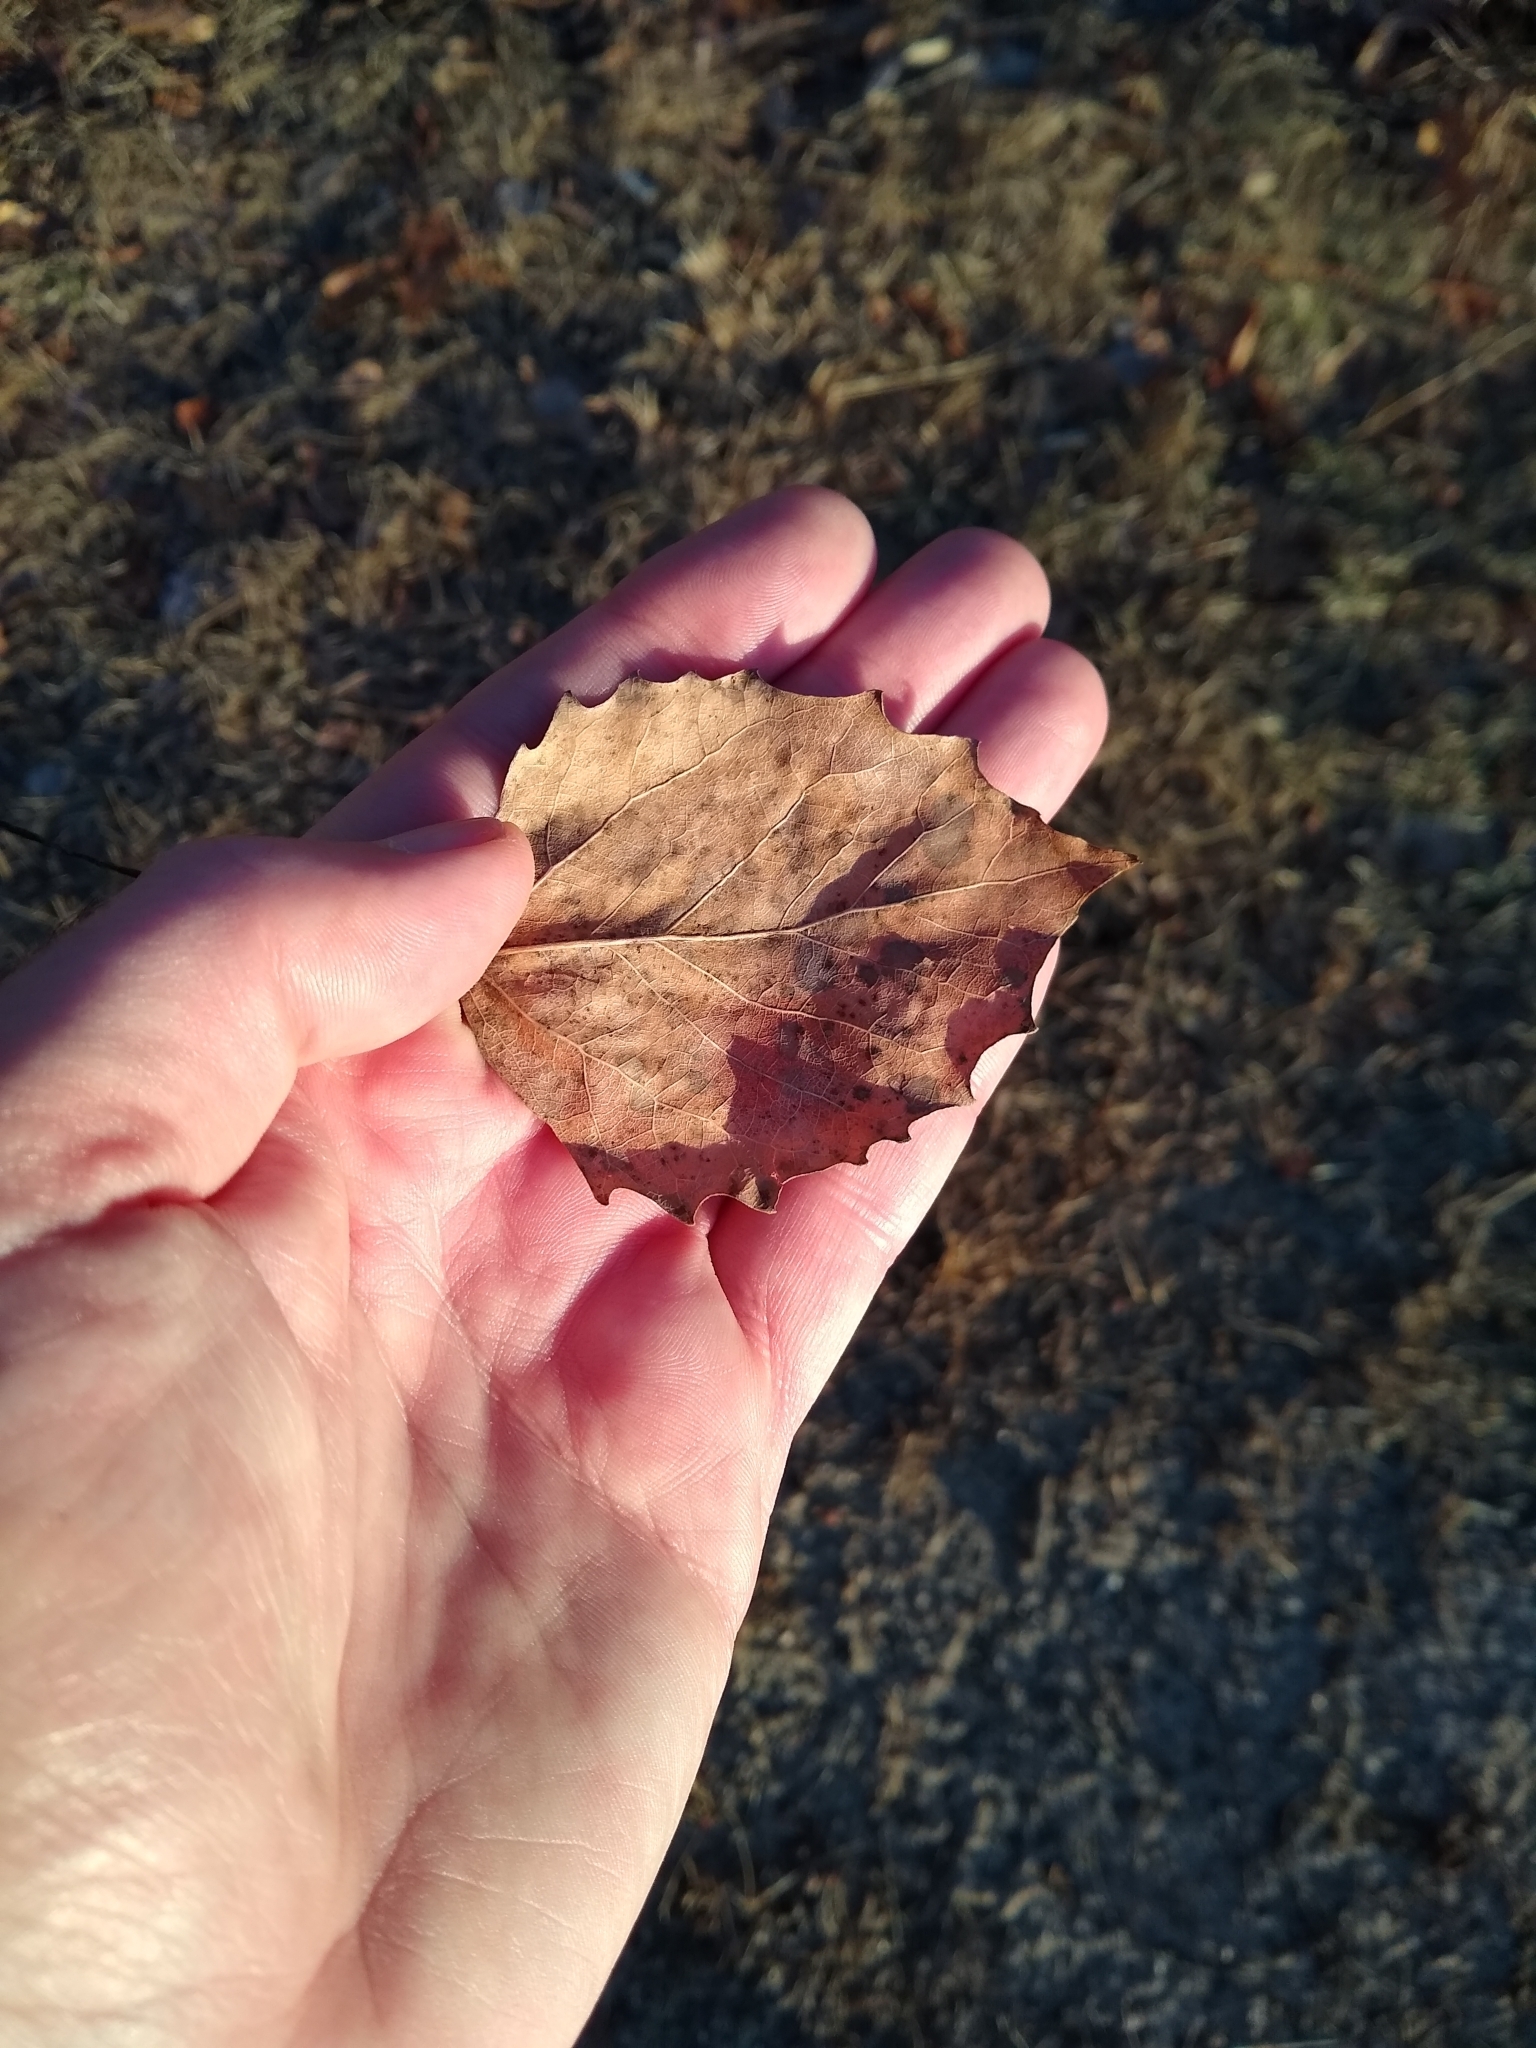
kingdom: Plantae
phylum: Tracheophyta
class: Magnoliopsida
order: Malpighiales
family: Salicaceae
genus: Populus
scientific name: Populus grandidentata
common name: Bigtooth aspen
